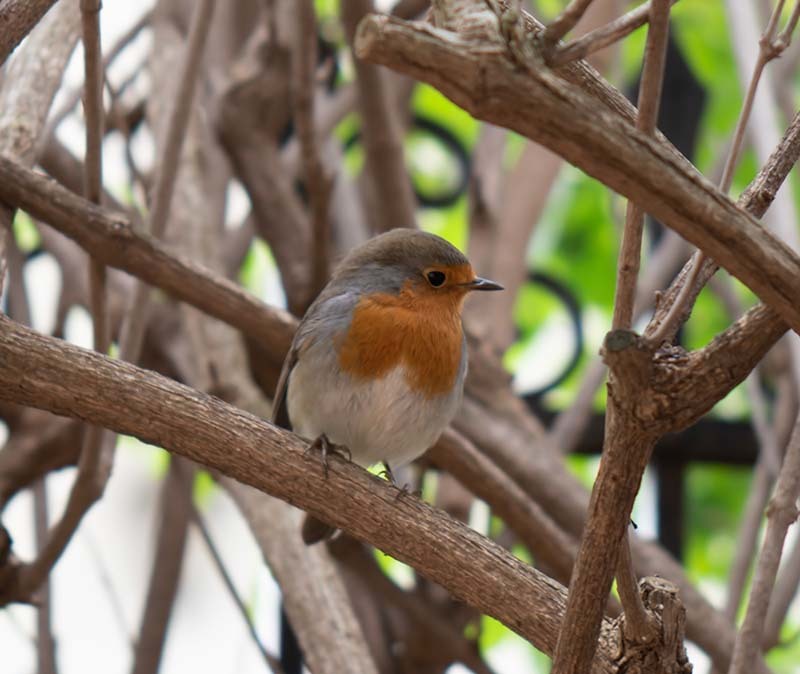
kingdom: Animalia
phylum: Chordata
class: Aves
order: Passeriformes
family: Muscicapidae
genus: Erithacus
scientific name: Erithacus rubecula
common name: European robin
